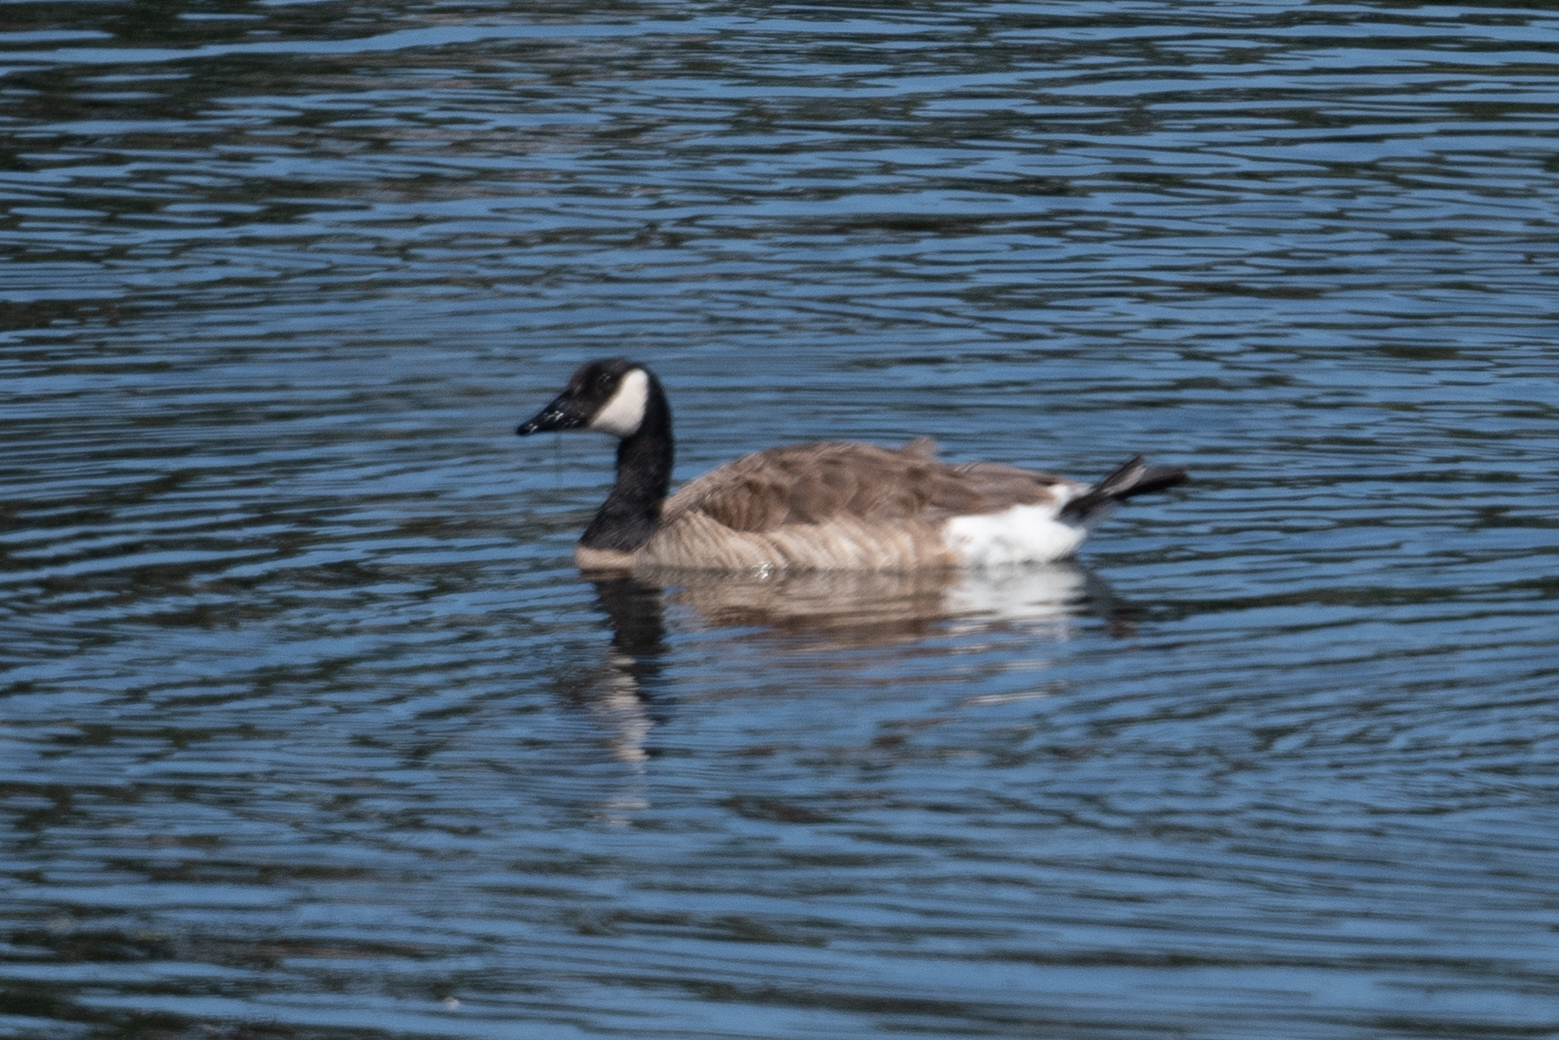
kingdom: Animalia
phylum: Chordata
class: Aves
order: Anseriformes
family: Anatidae
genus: Branta
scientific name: Branta canadensis
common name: Canada goose
